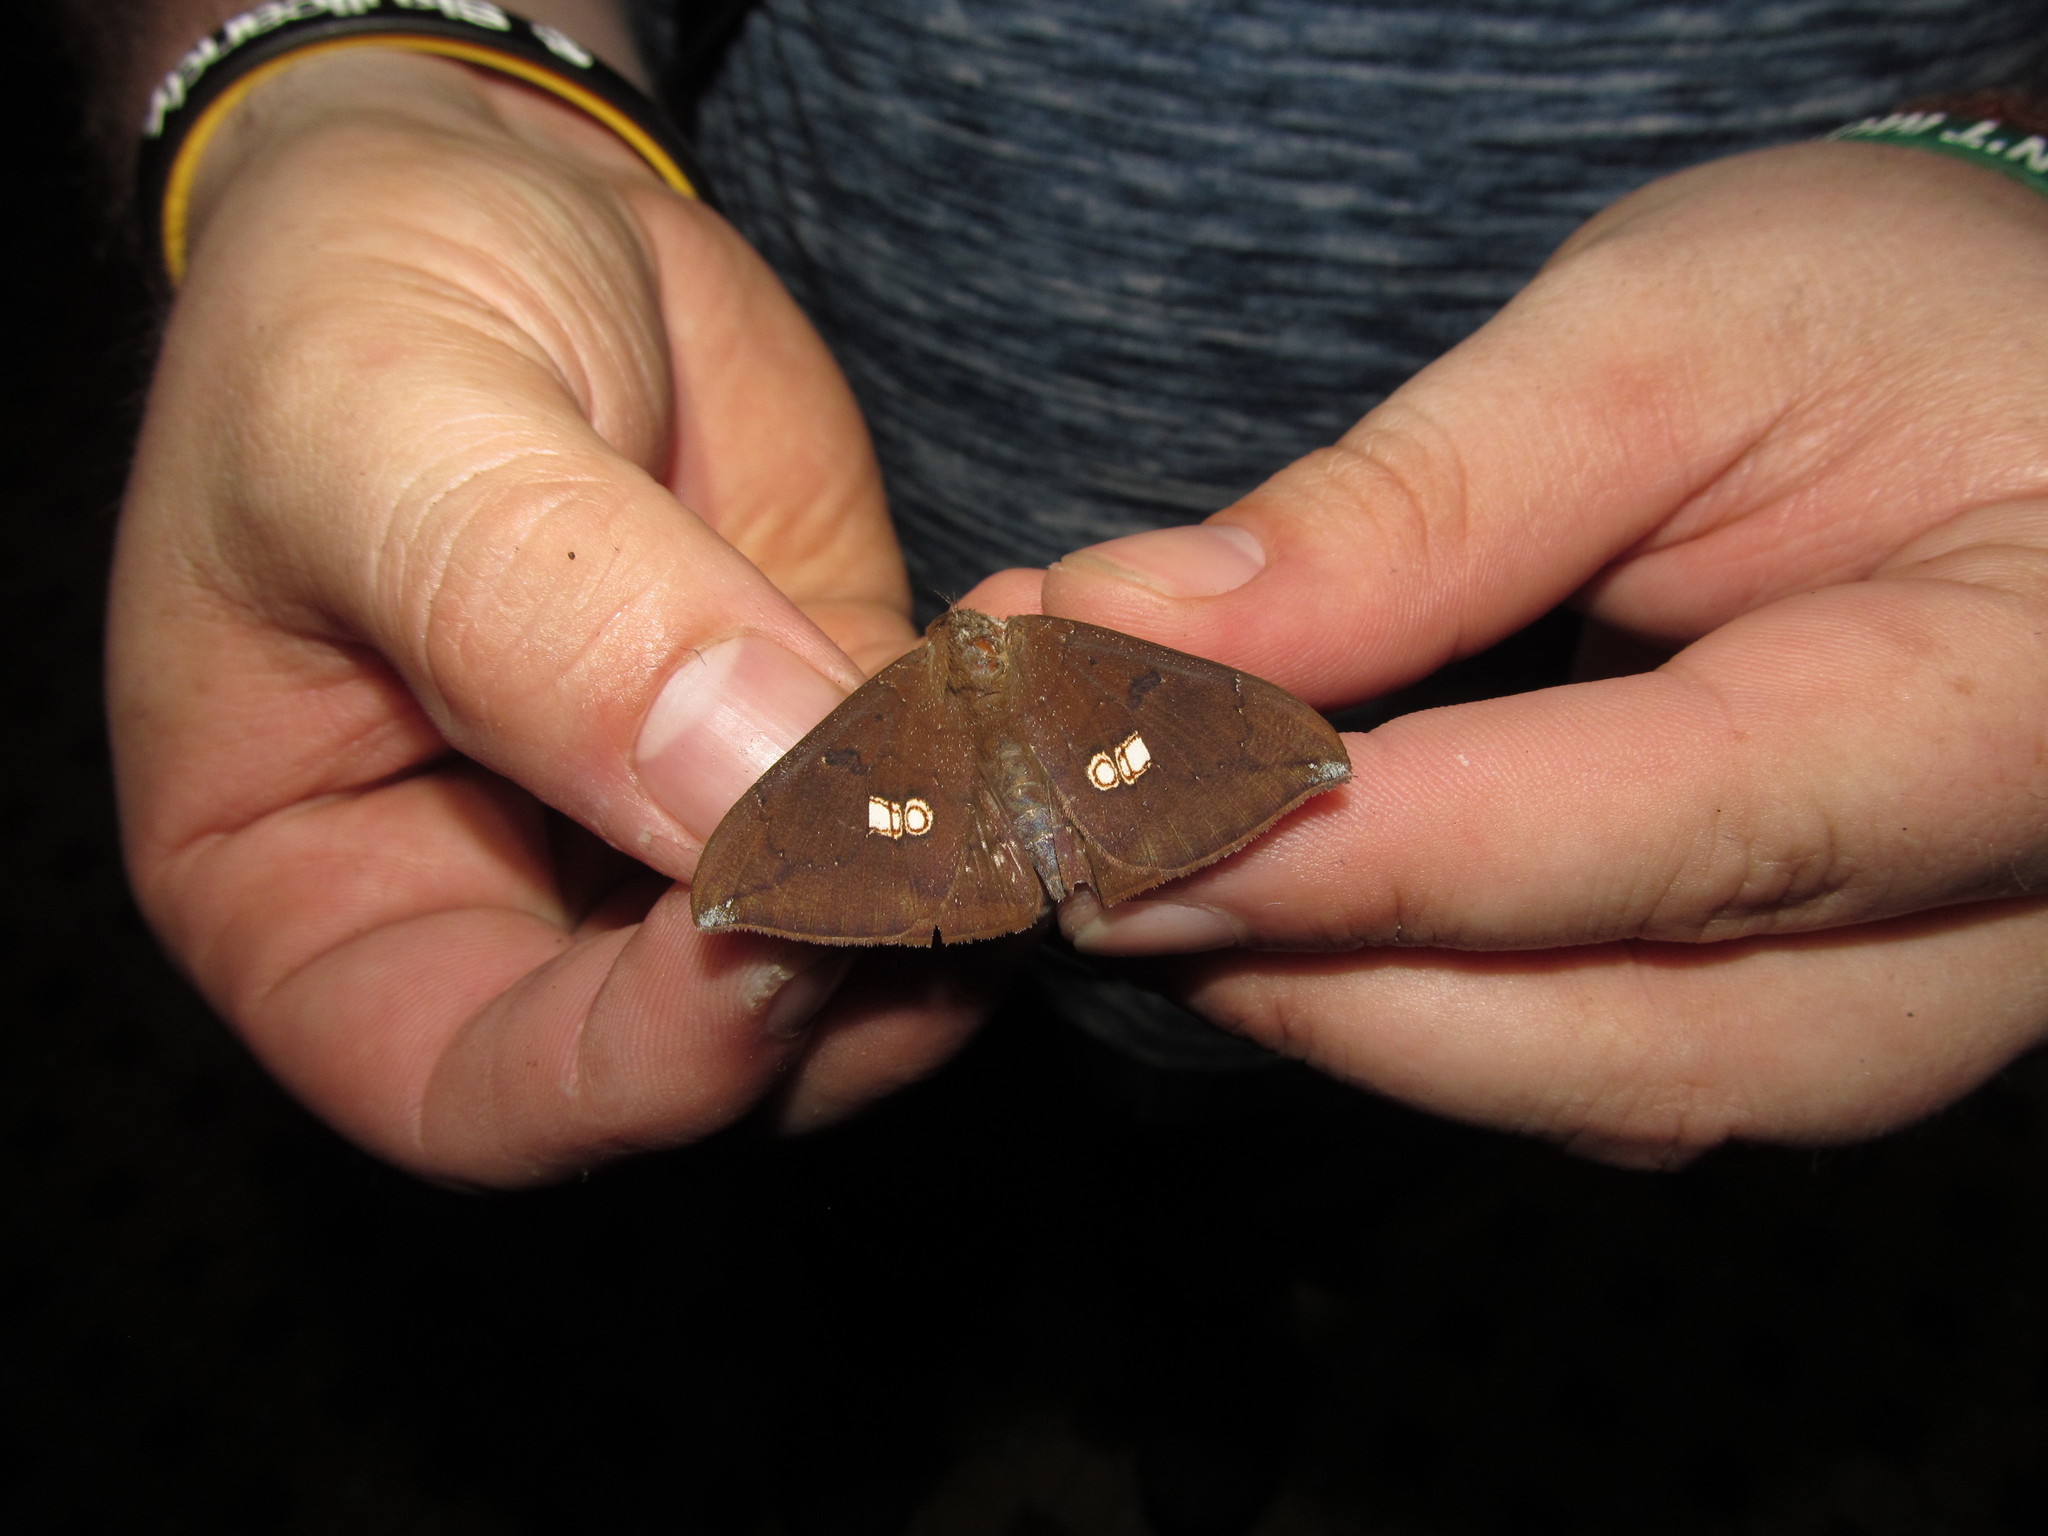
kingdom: Animalia
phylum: Arthropoda
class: Insecta
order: Lepidoptera
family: Erebidae
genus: Platyja
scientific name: Platyja umminia
